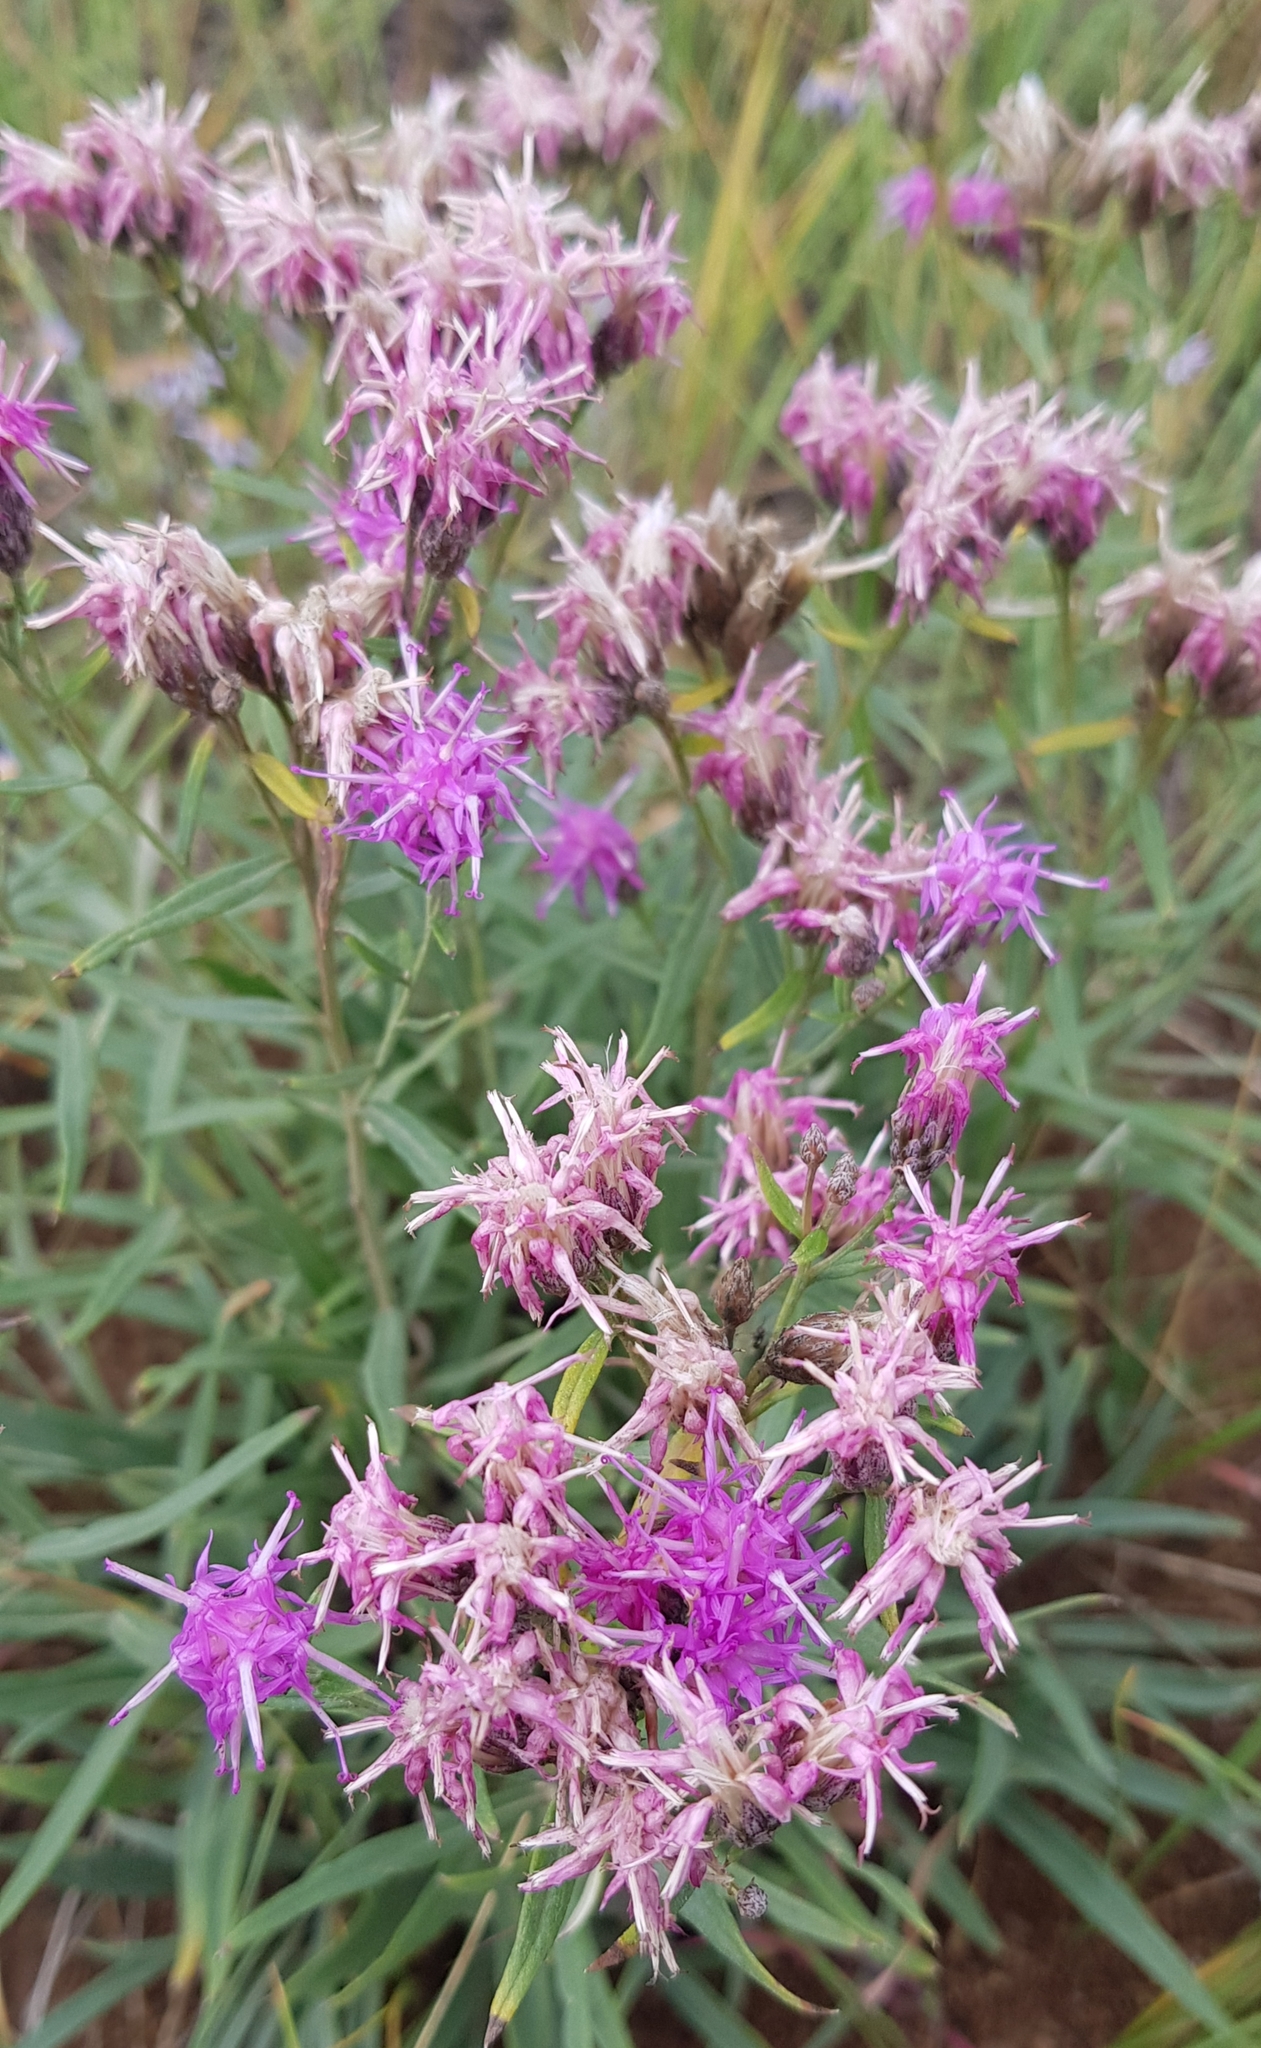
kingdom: Plantae
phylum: Tracheophyta
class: Magnoliopsida
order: Asterales
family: Asteraceae
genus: Saussurea
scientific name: Saussurea salicifolia
